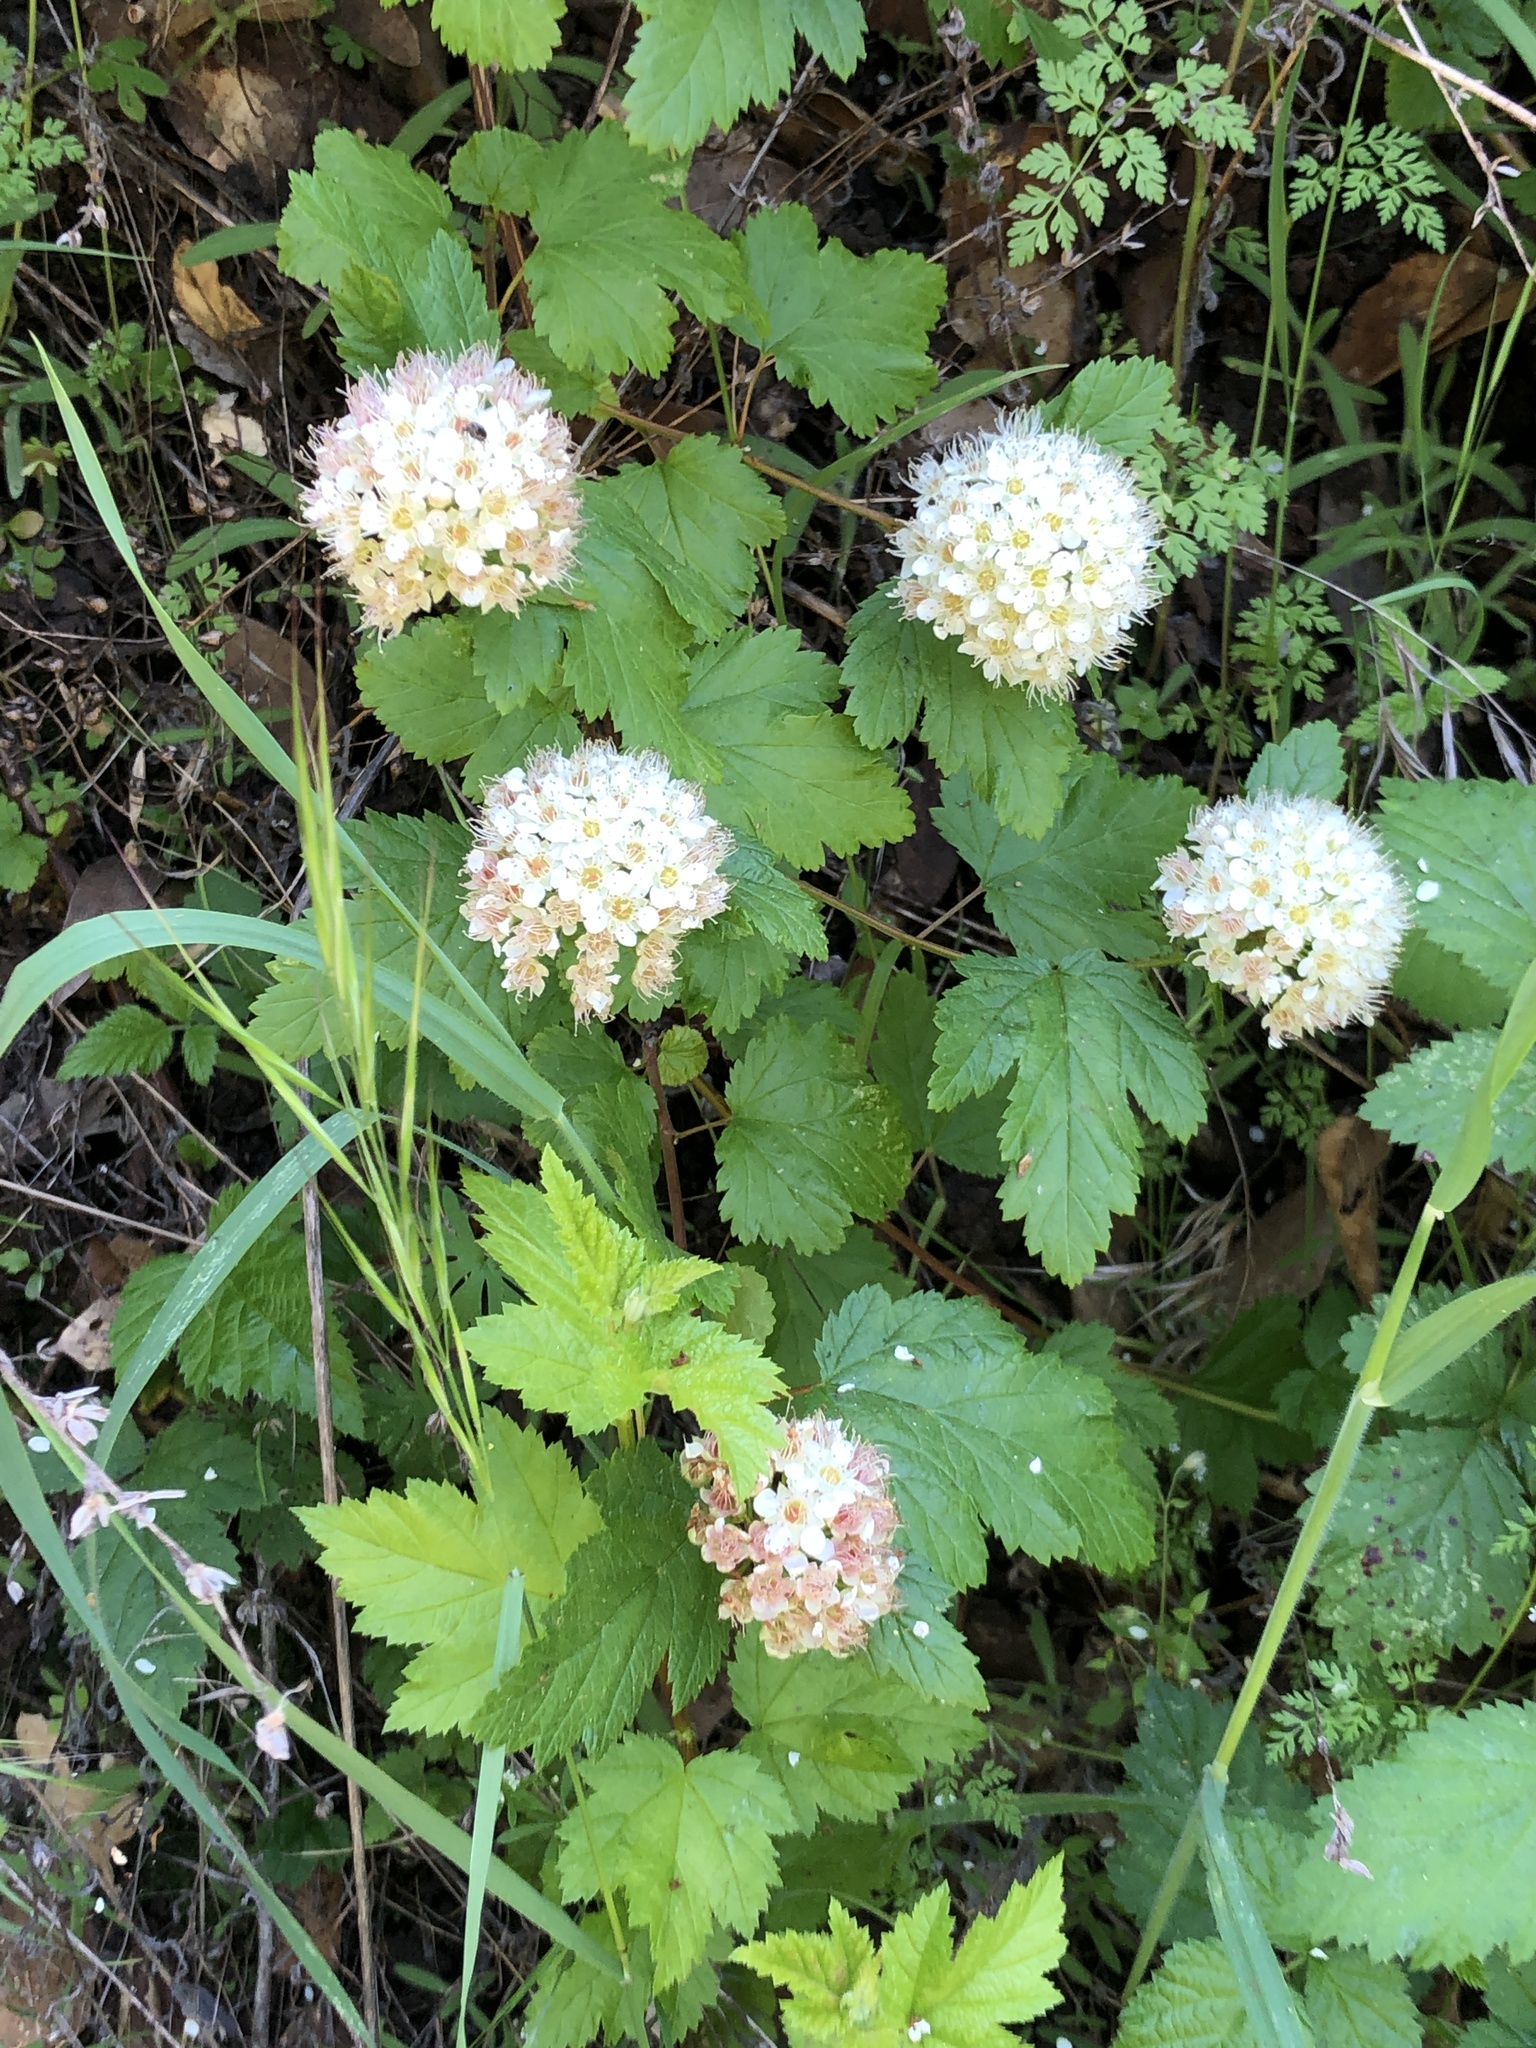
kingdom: Plantae
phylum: Tracheophyta
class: Magnoliopsida
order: Rosales
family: Rosaceae
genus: Physocarpus
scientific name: Physocarpus capitatus
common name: Pacific ninebark
